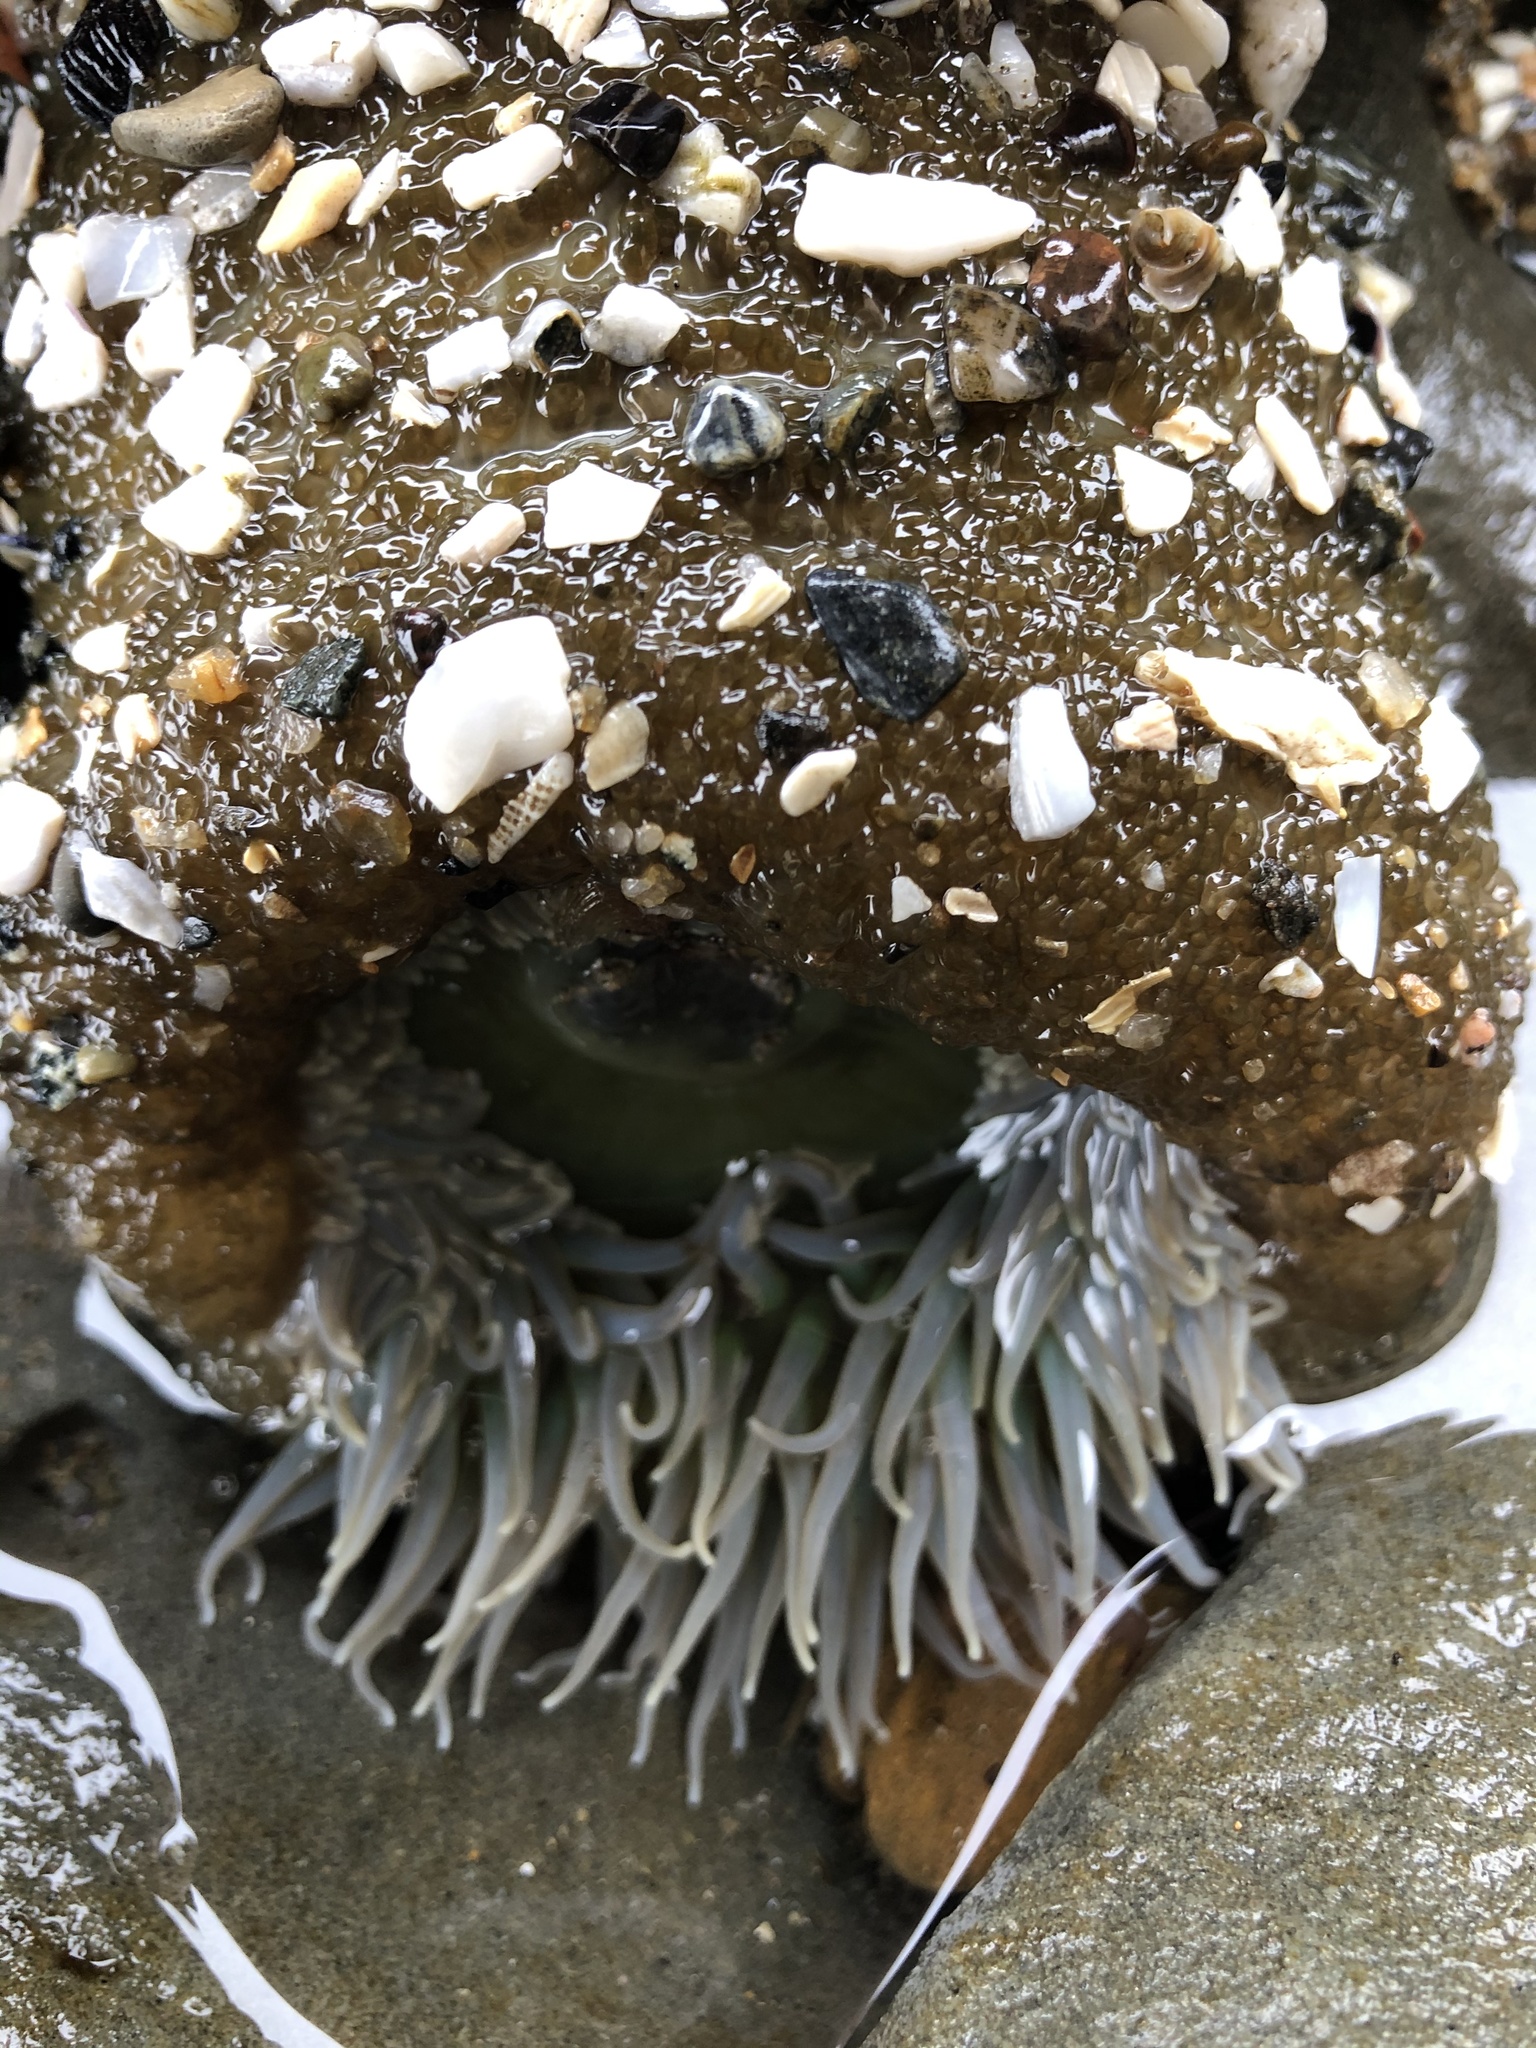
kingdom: Animalia
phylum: Cnidaria
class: Anthozoa
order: Actiniaria
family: Actiniidae
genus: Anthopleura
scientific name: Anthopleura xanthogrammica
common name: Giant green anemone
